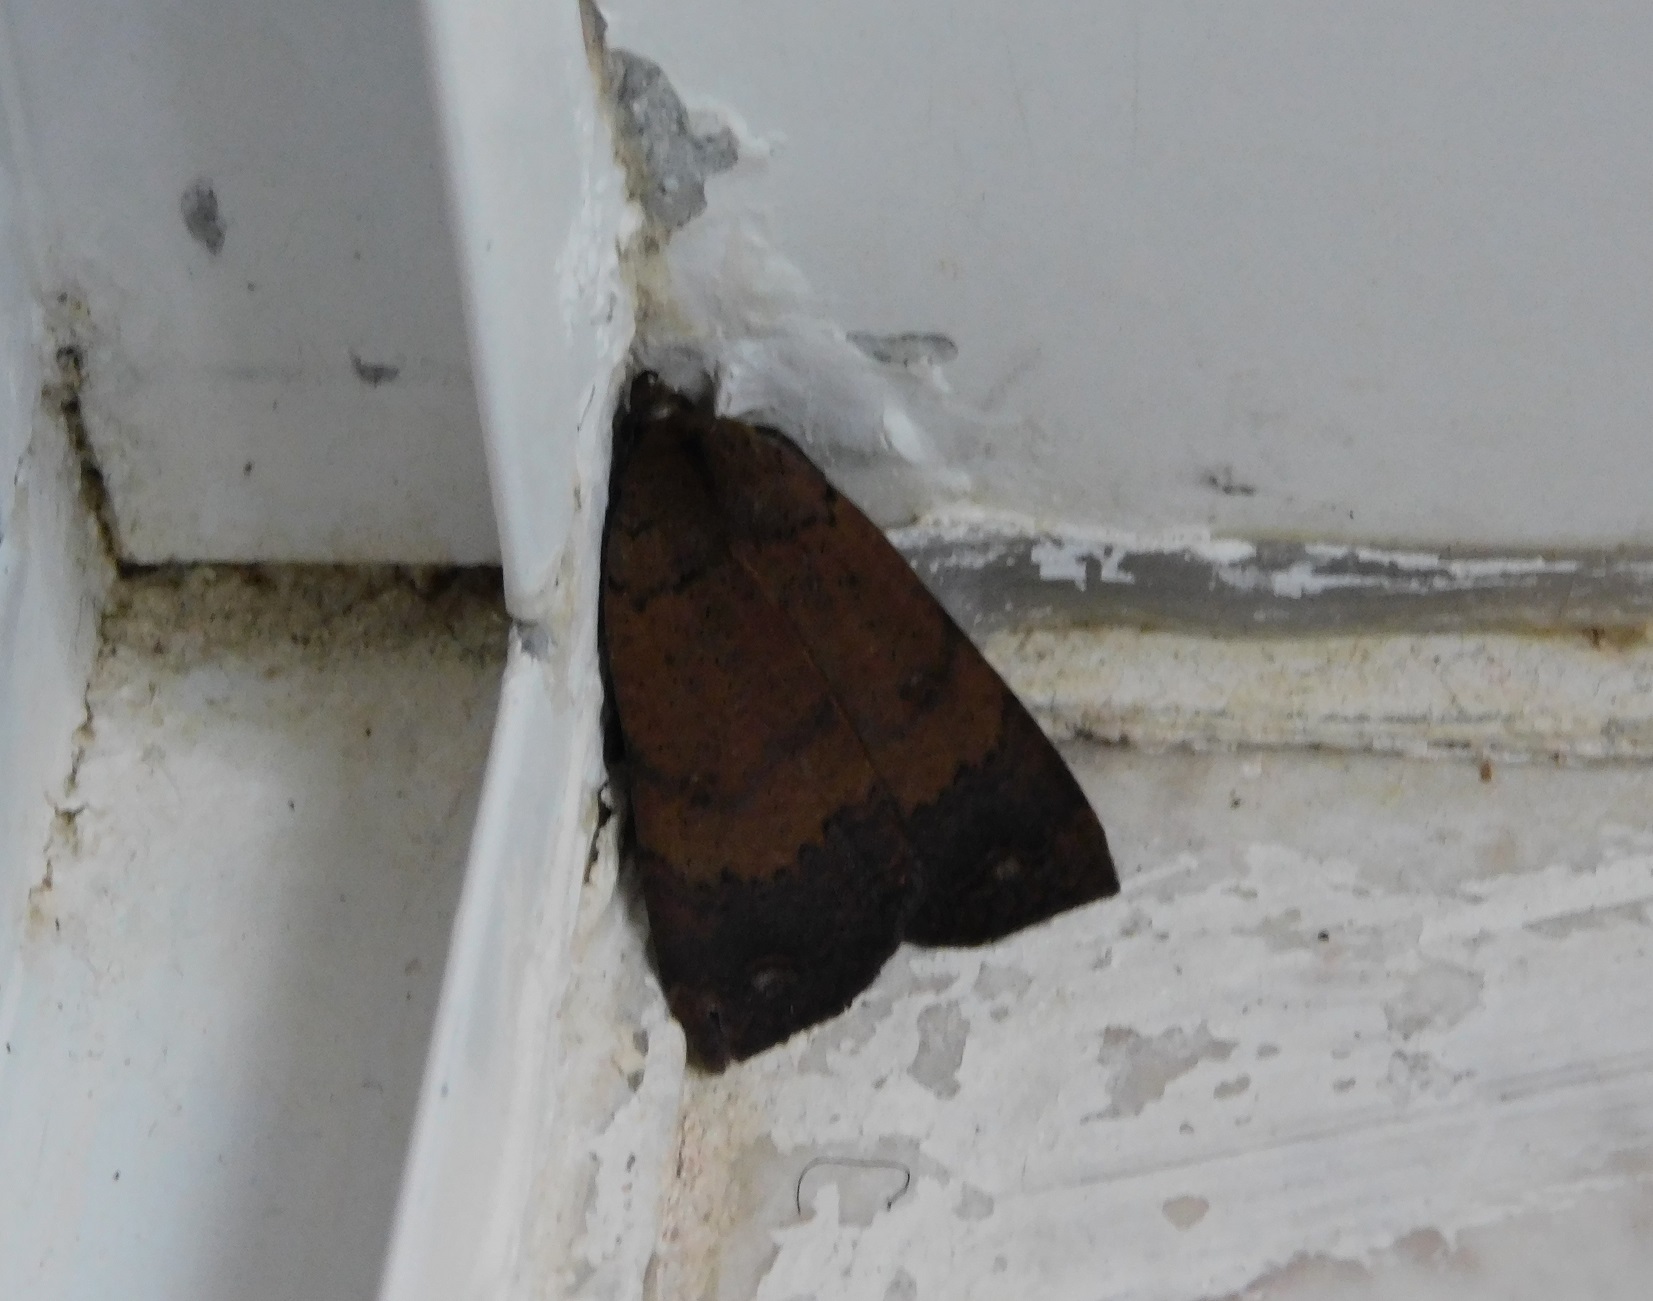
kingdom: Animalia
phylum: Arthropoda
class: Insecta
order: Lepidoptera
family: Erebidae
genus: Pyrgion
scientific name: Pyrgion repanda
